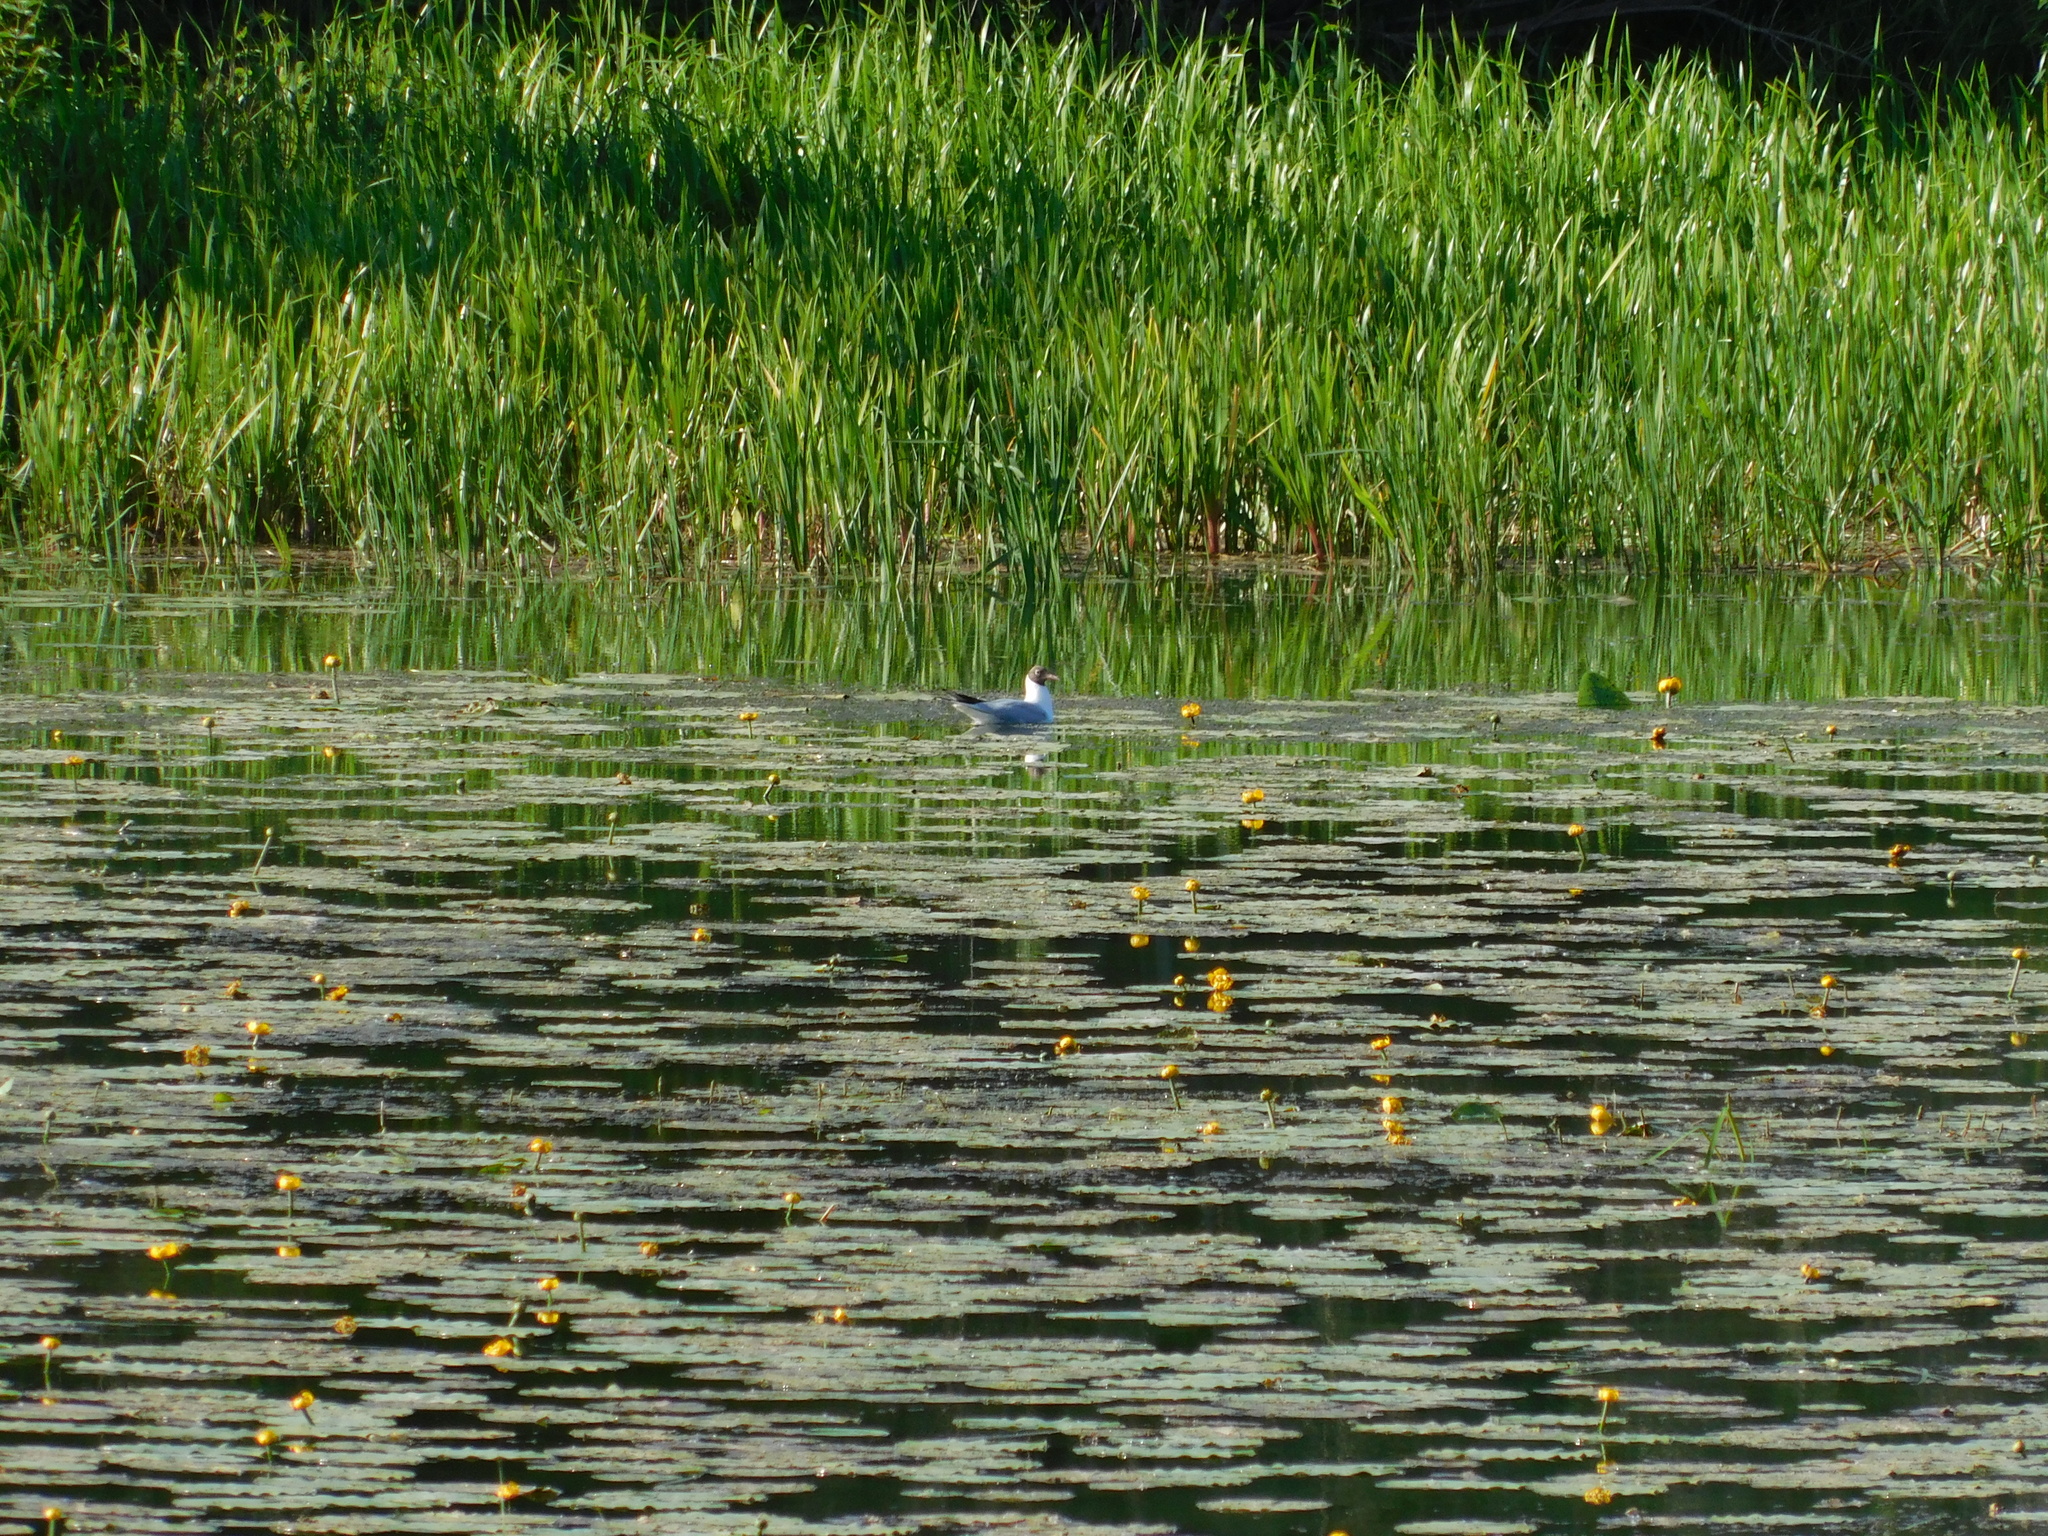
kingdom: Animalia
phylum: Chordata
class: Aves
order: Charadriiformes
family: Laridae
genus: Chroicocephalus
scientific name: Chroicocephalus ridibundus
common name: Black-headed gull
